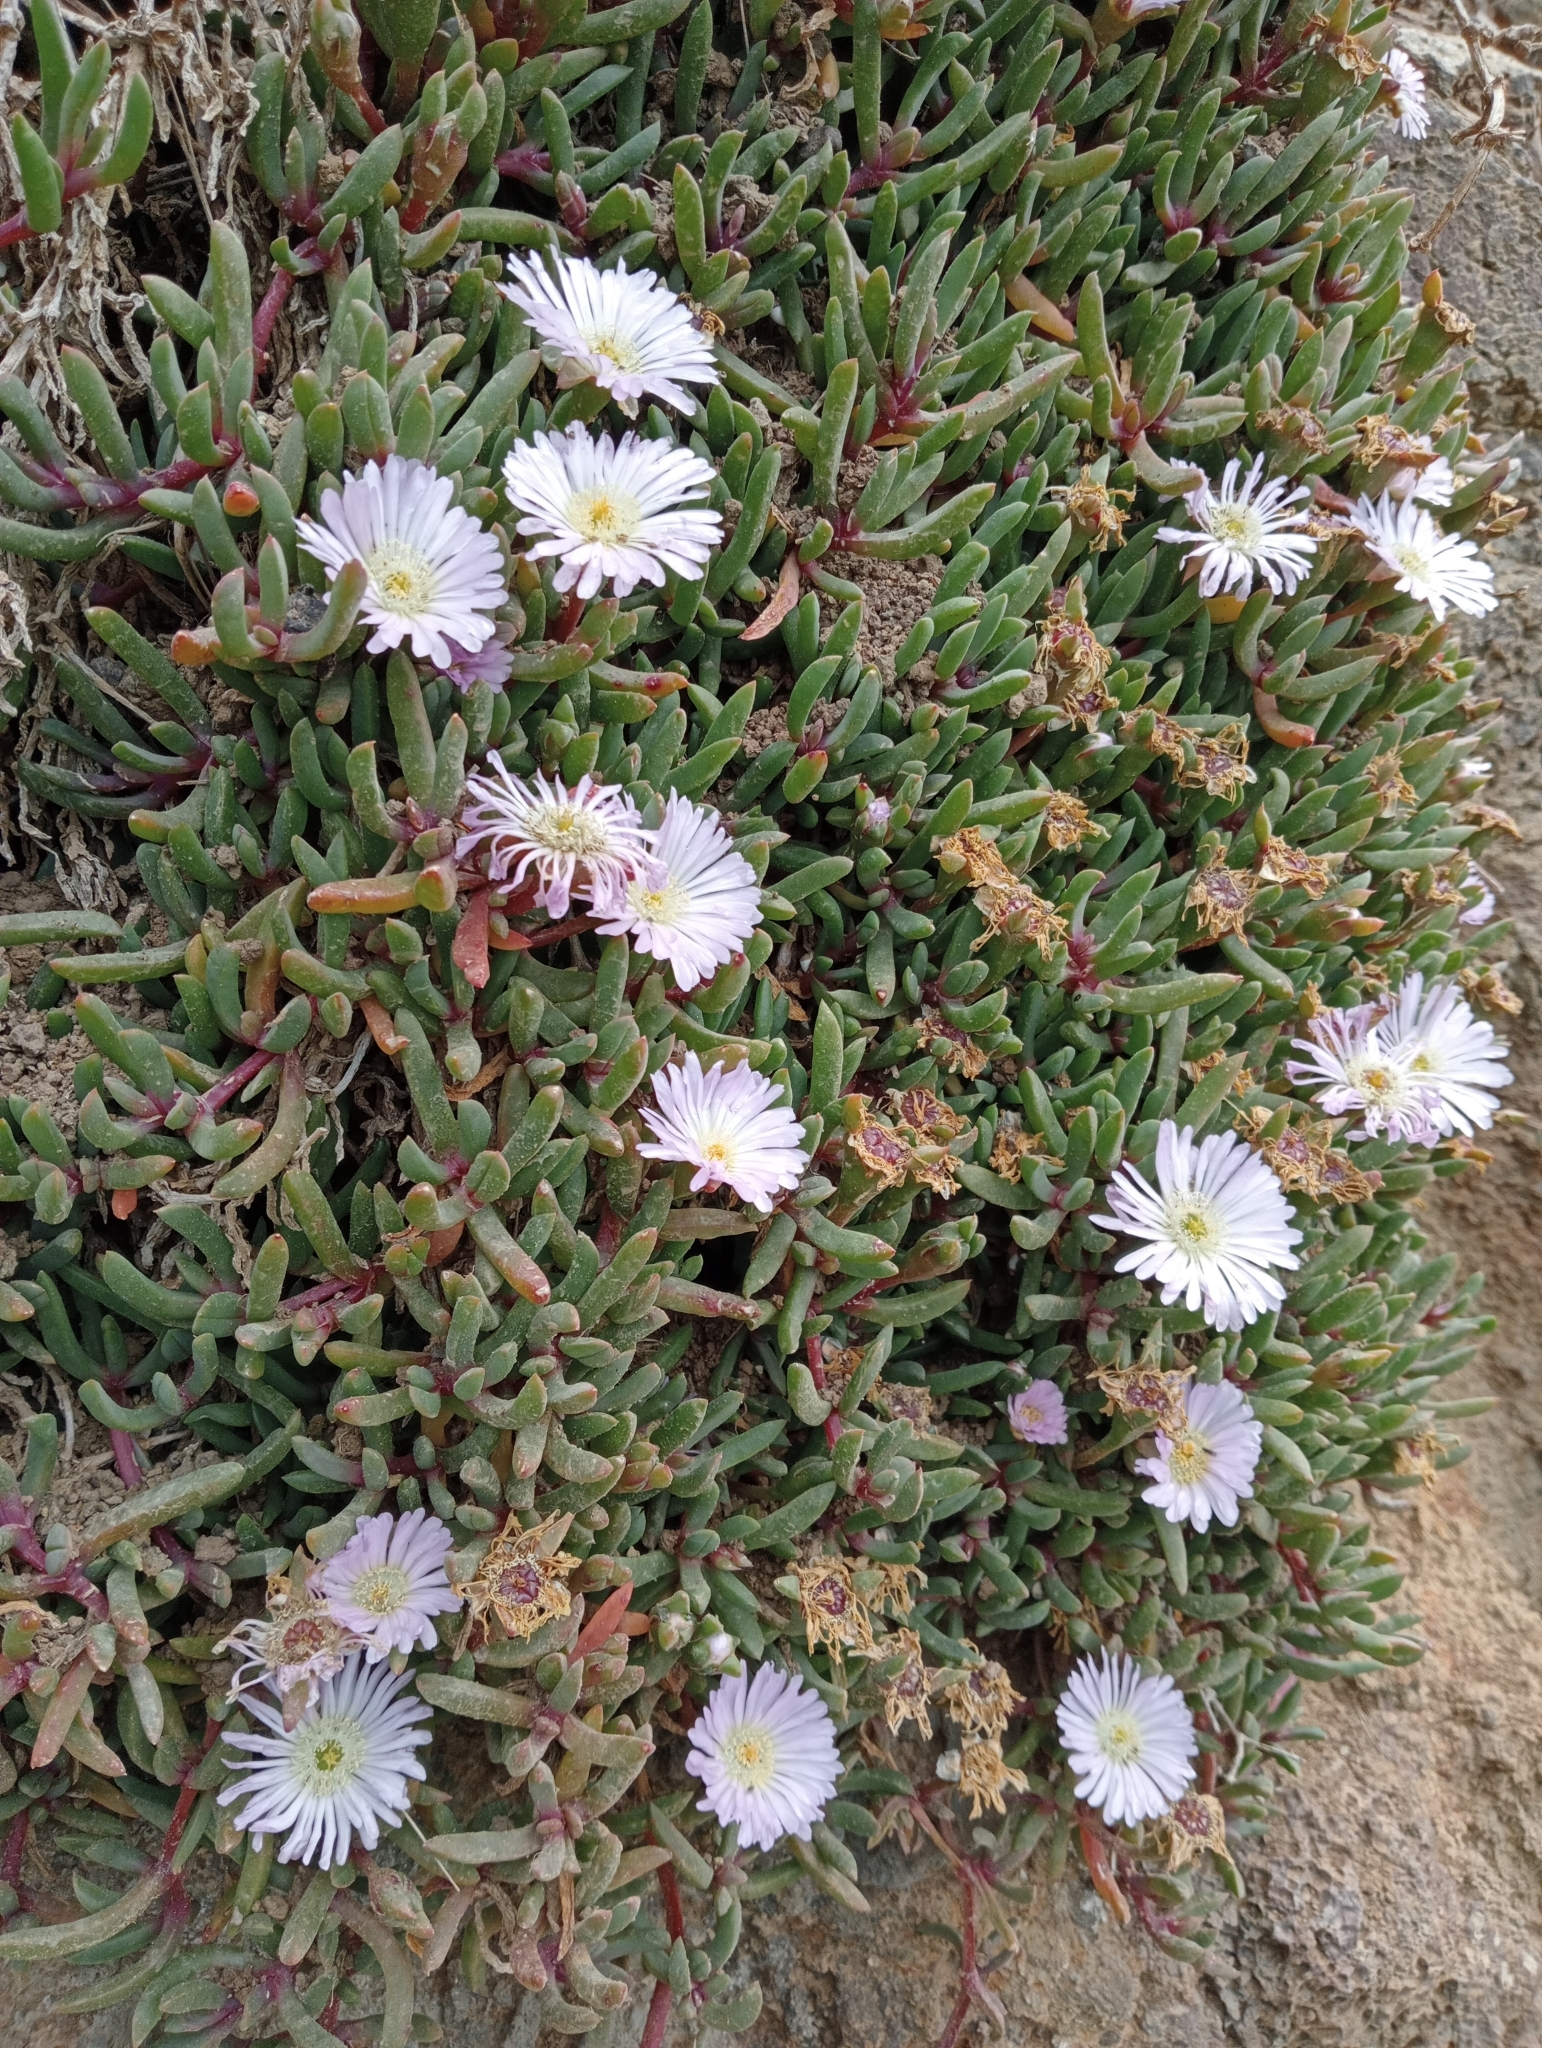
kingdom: Plantae
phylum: Tracheophyta
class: Magnoliopsida
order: Caryophyllales
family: Aizoaceae
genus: Disphyma
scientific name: Disphyma australe
